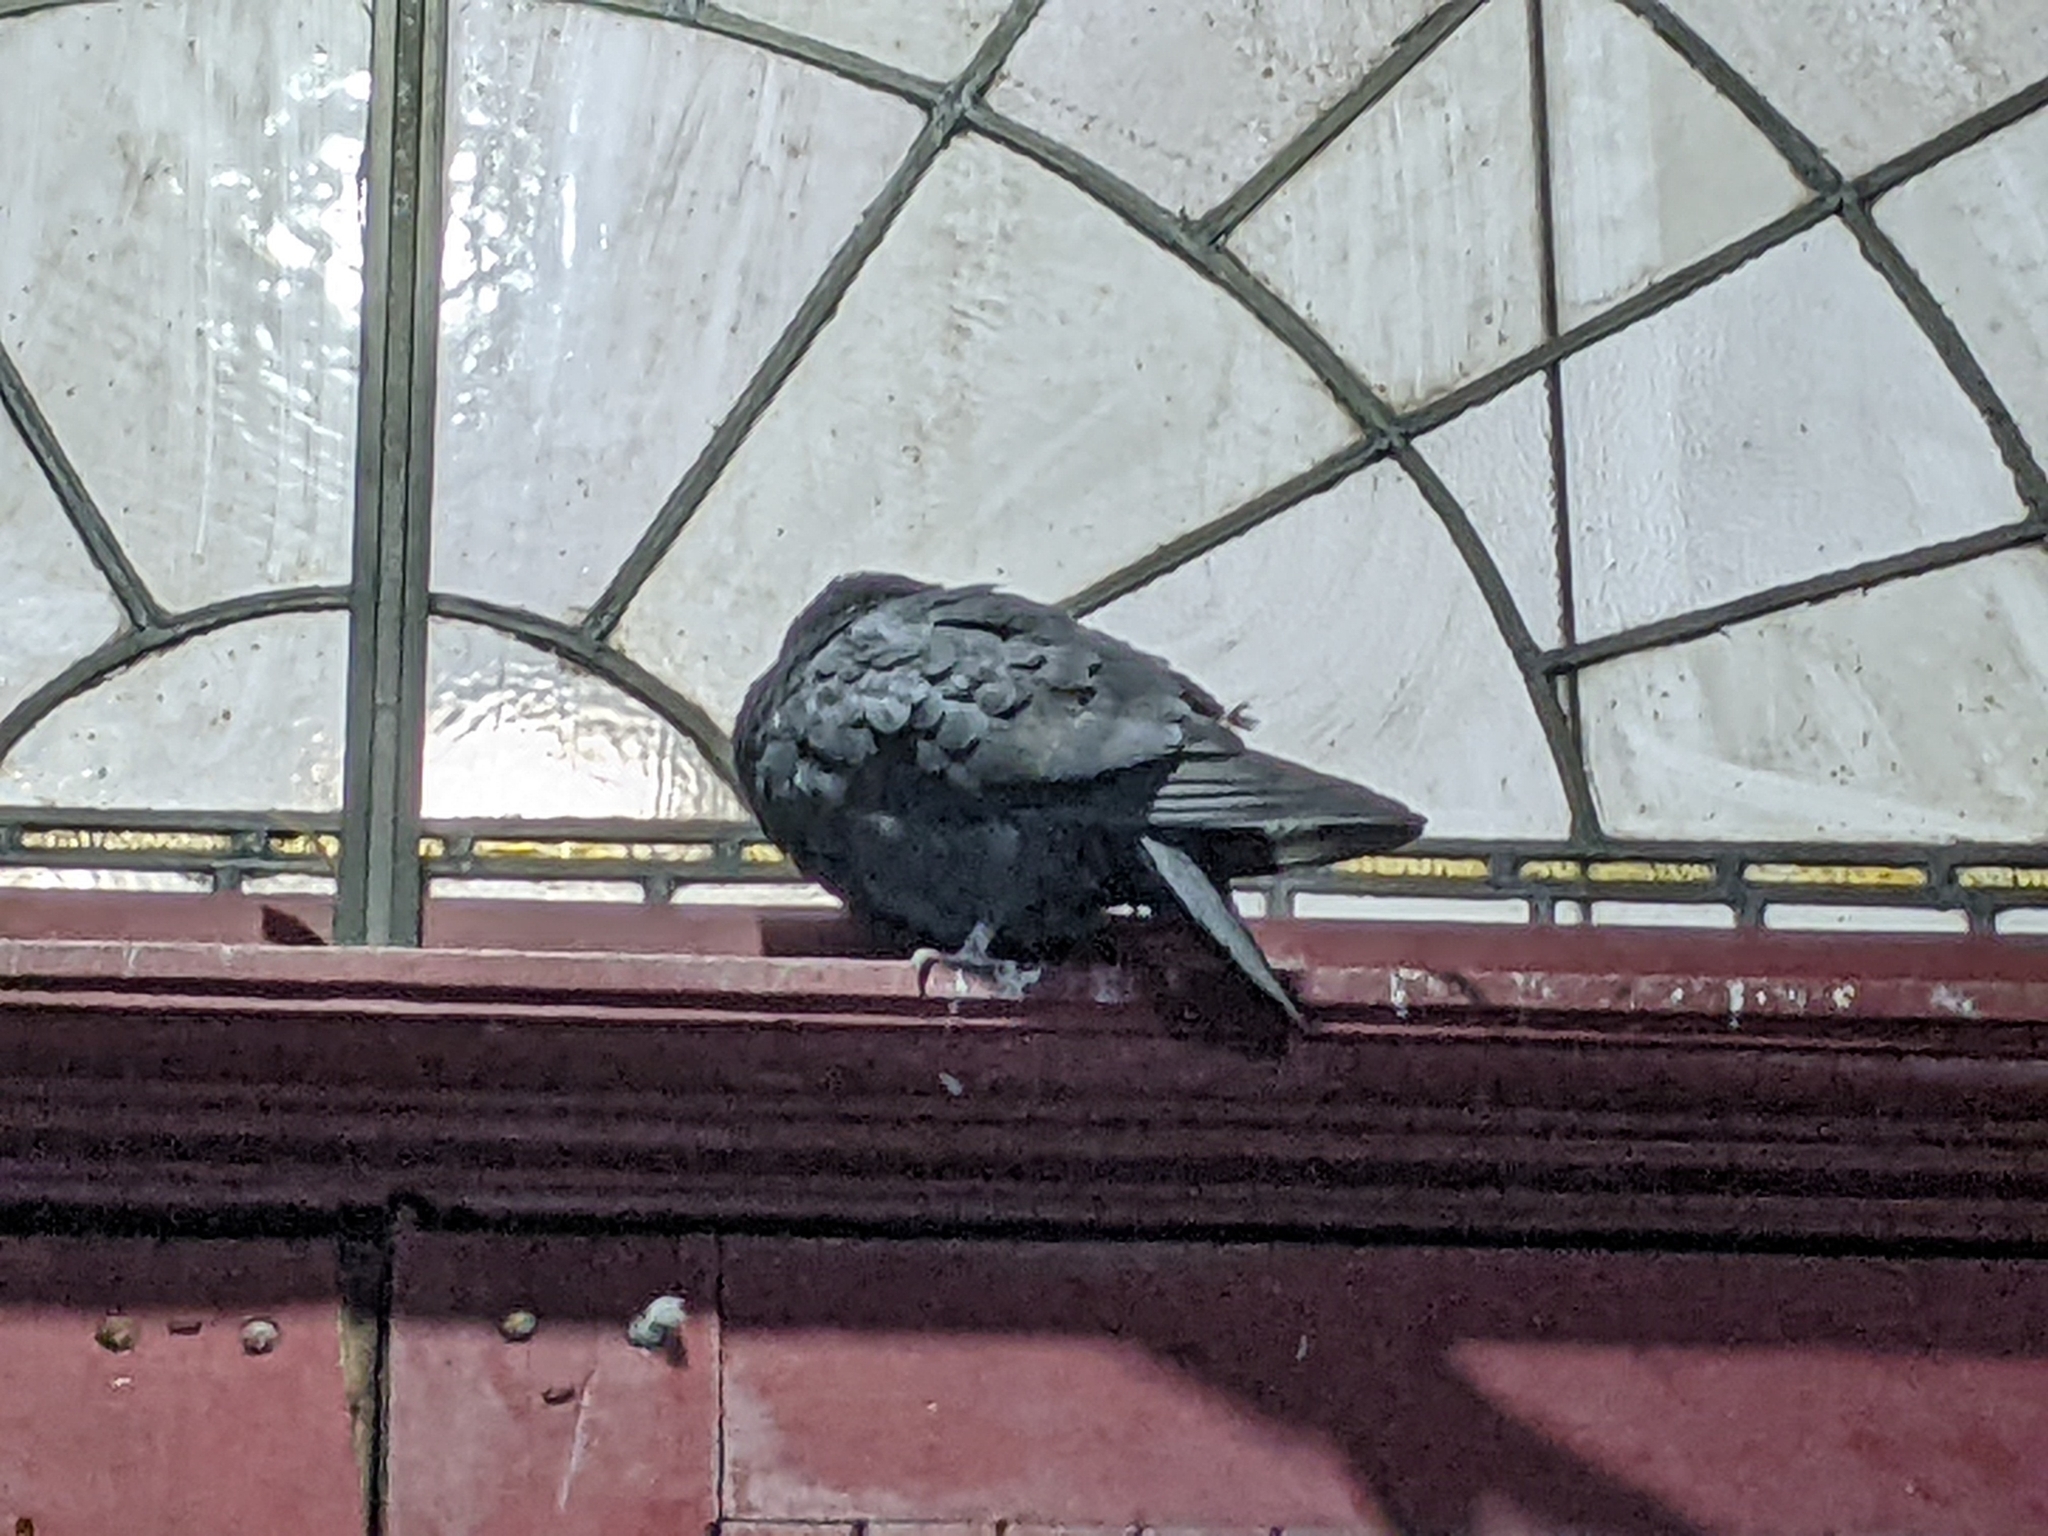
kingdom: Animalia
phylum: Chordata
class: Aves
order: Columbiformes
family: Columbidae
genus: Columba
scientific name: Columba livia
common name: Rock pigeon
